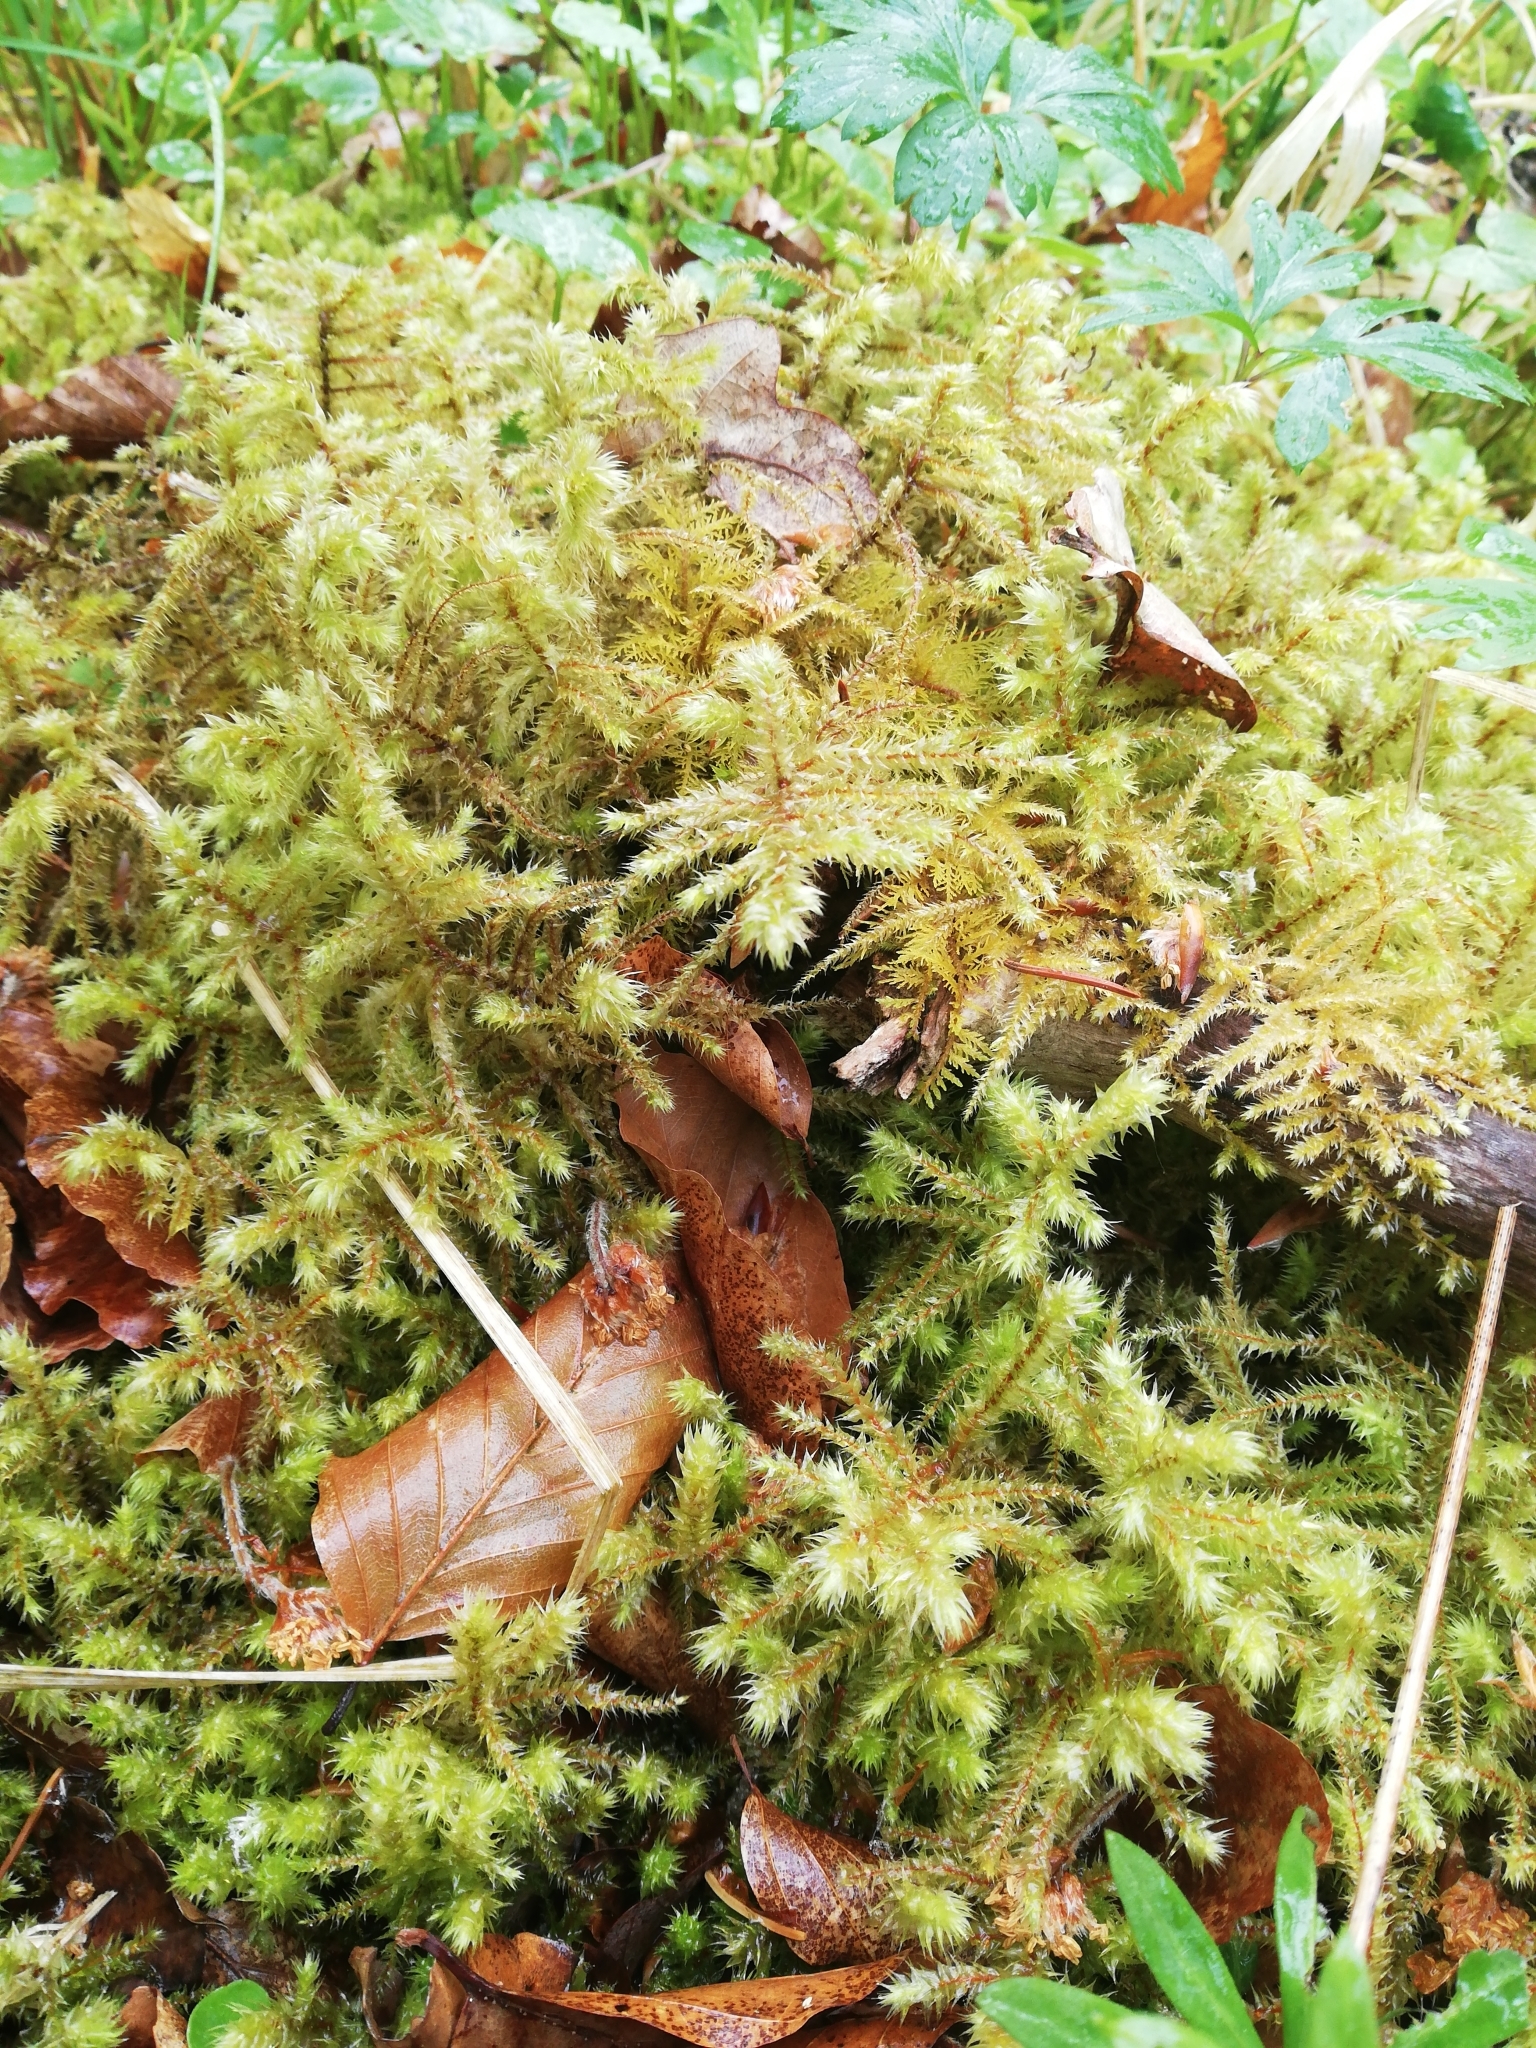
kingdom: Plantae
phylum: Bryophyta
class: Bryopsida
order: Hypnales
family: Hylocomiaceae
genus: Hylocomiadelphus
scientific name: Hylocomiadelphus triquetrus
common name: Rough goose neck moss
